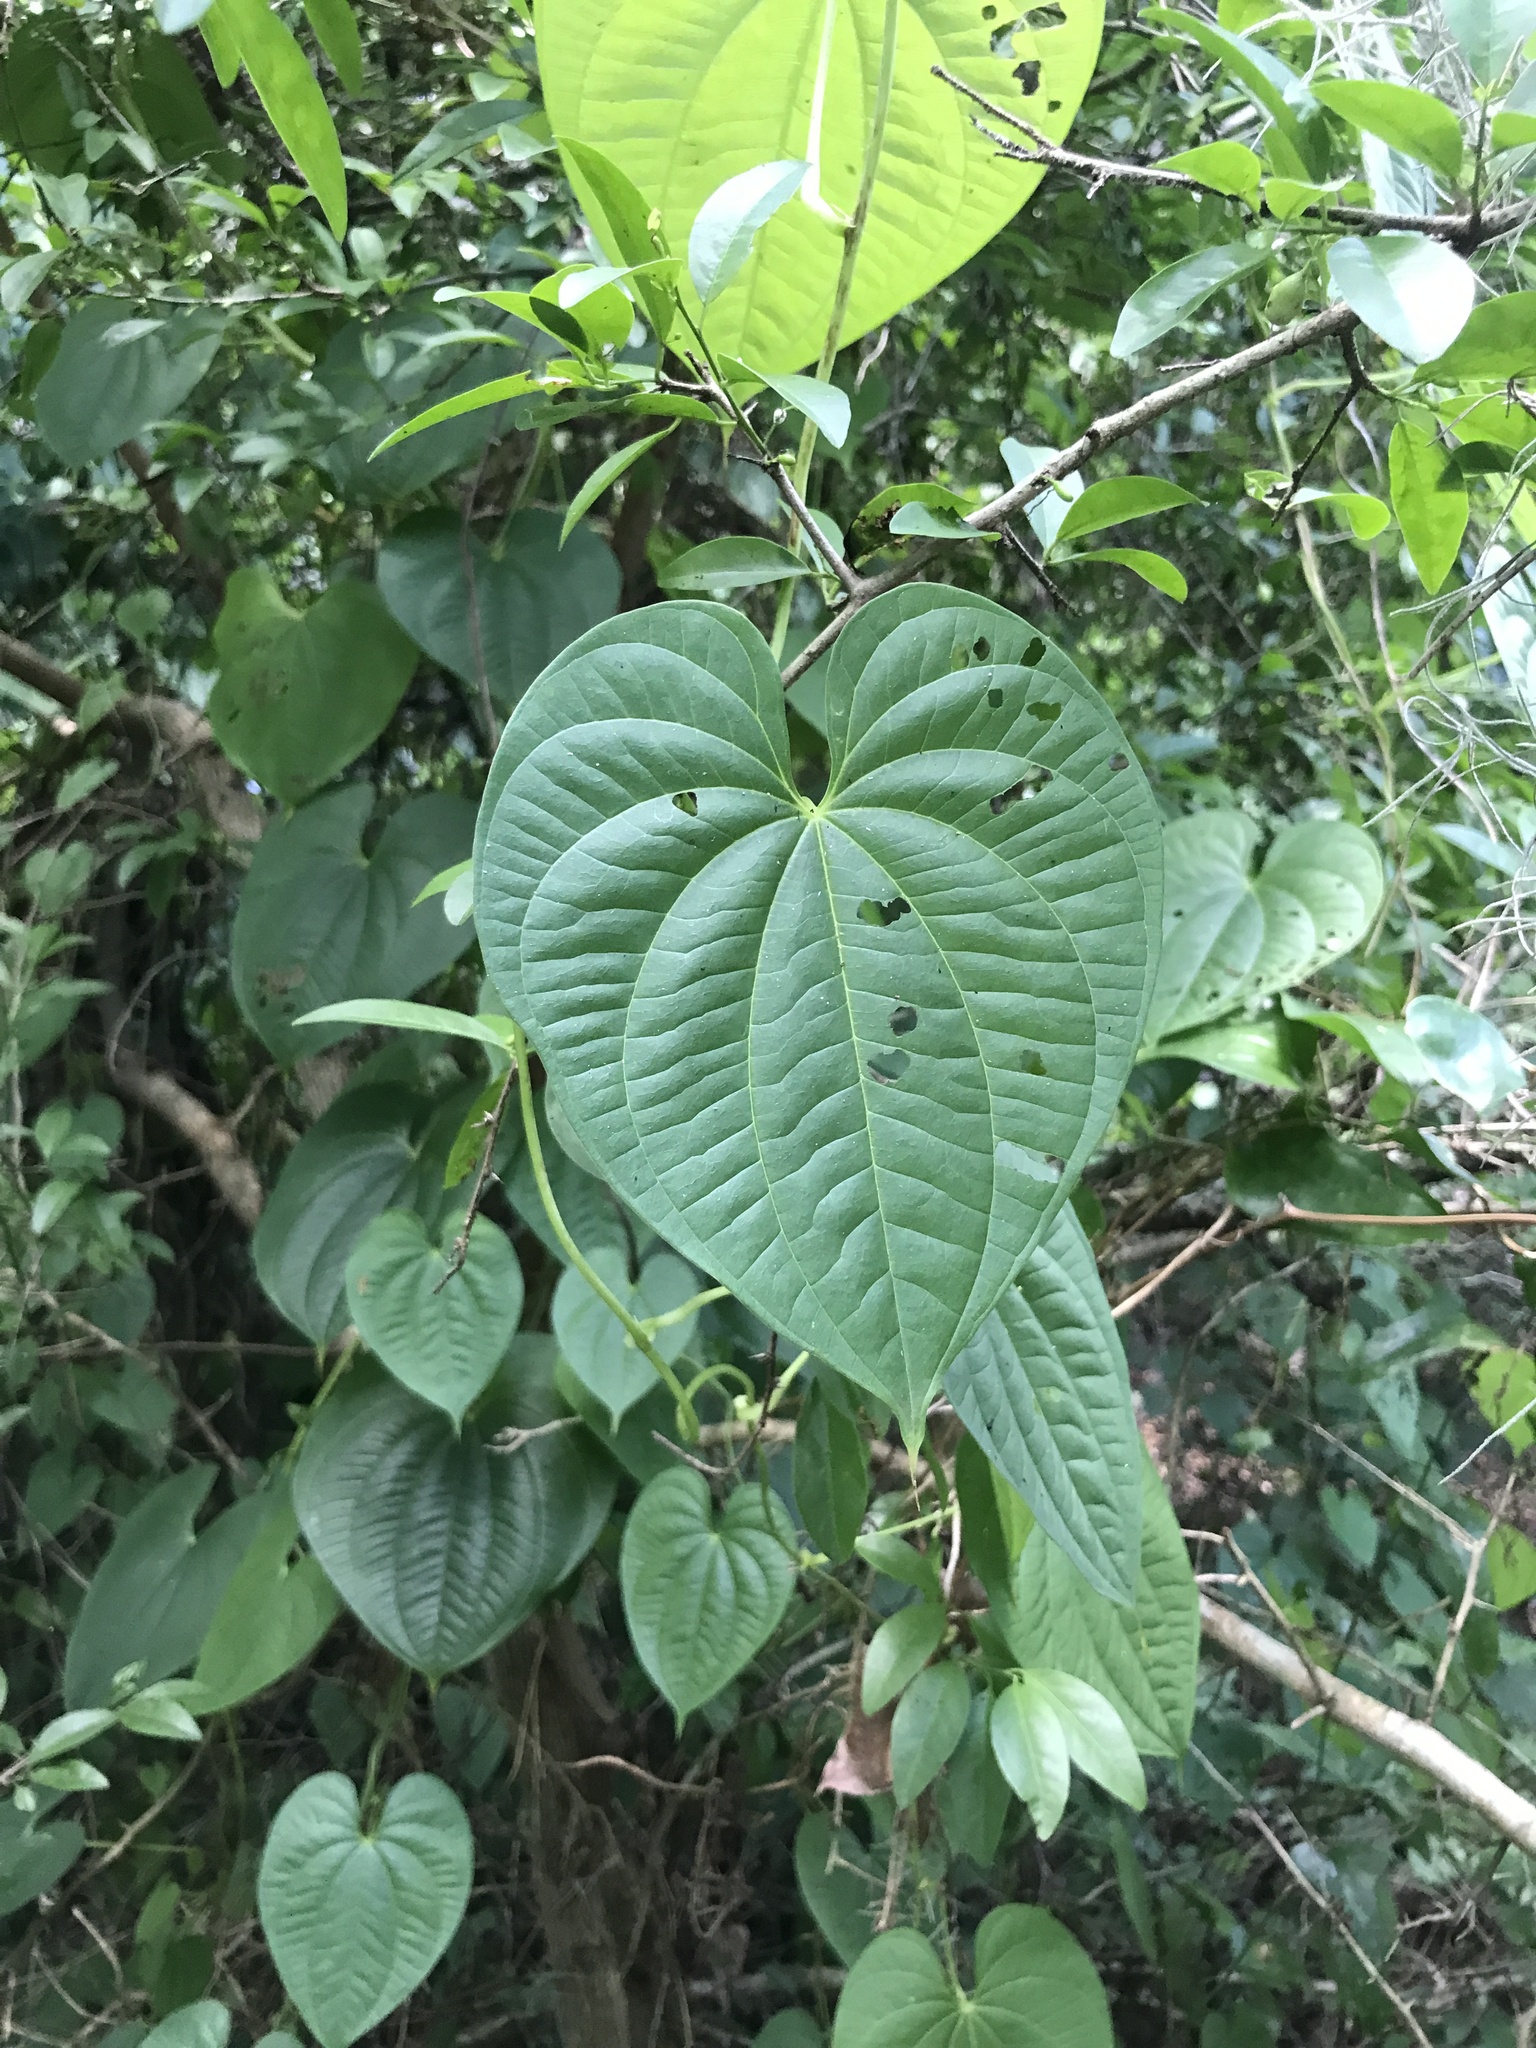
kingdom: Plantae
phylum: Tracheophyta
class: Liliopsida
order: Dioscoreales
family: Dioscoreaceae
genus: Dioscorea
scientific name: Dioscorea bulbifera
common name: Air yam
